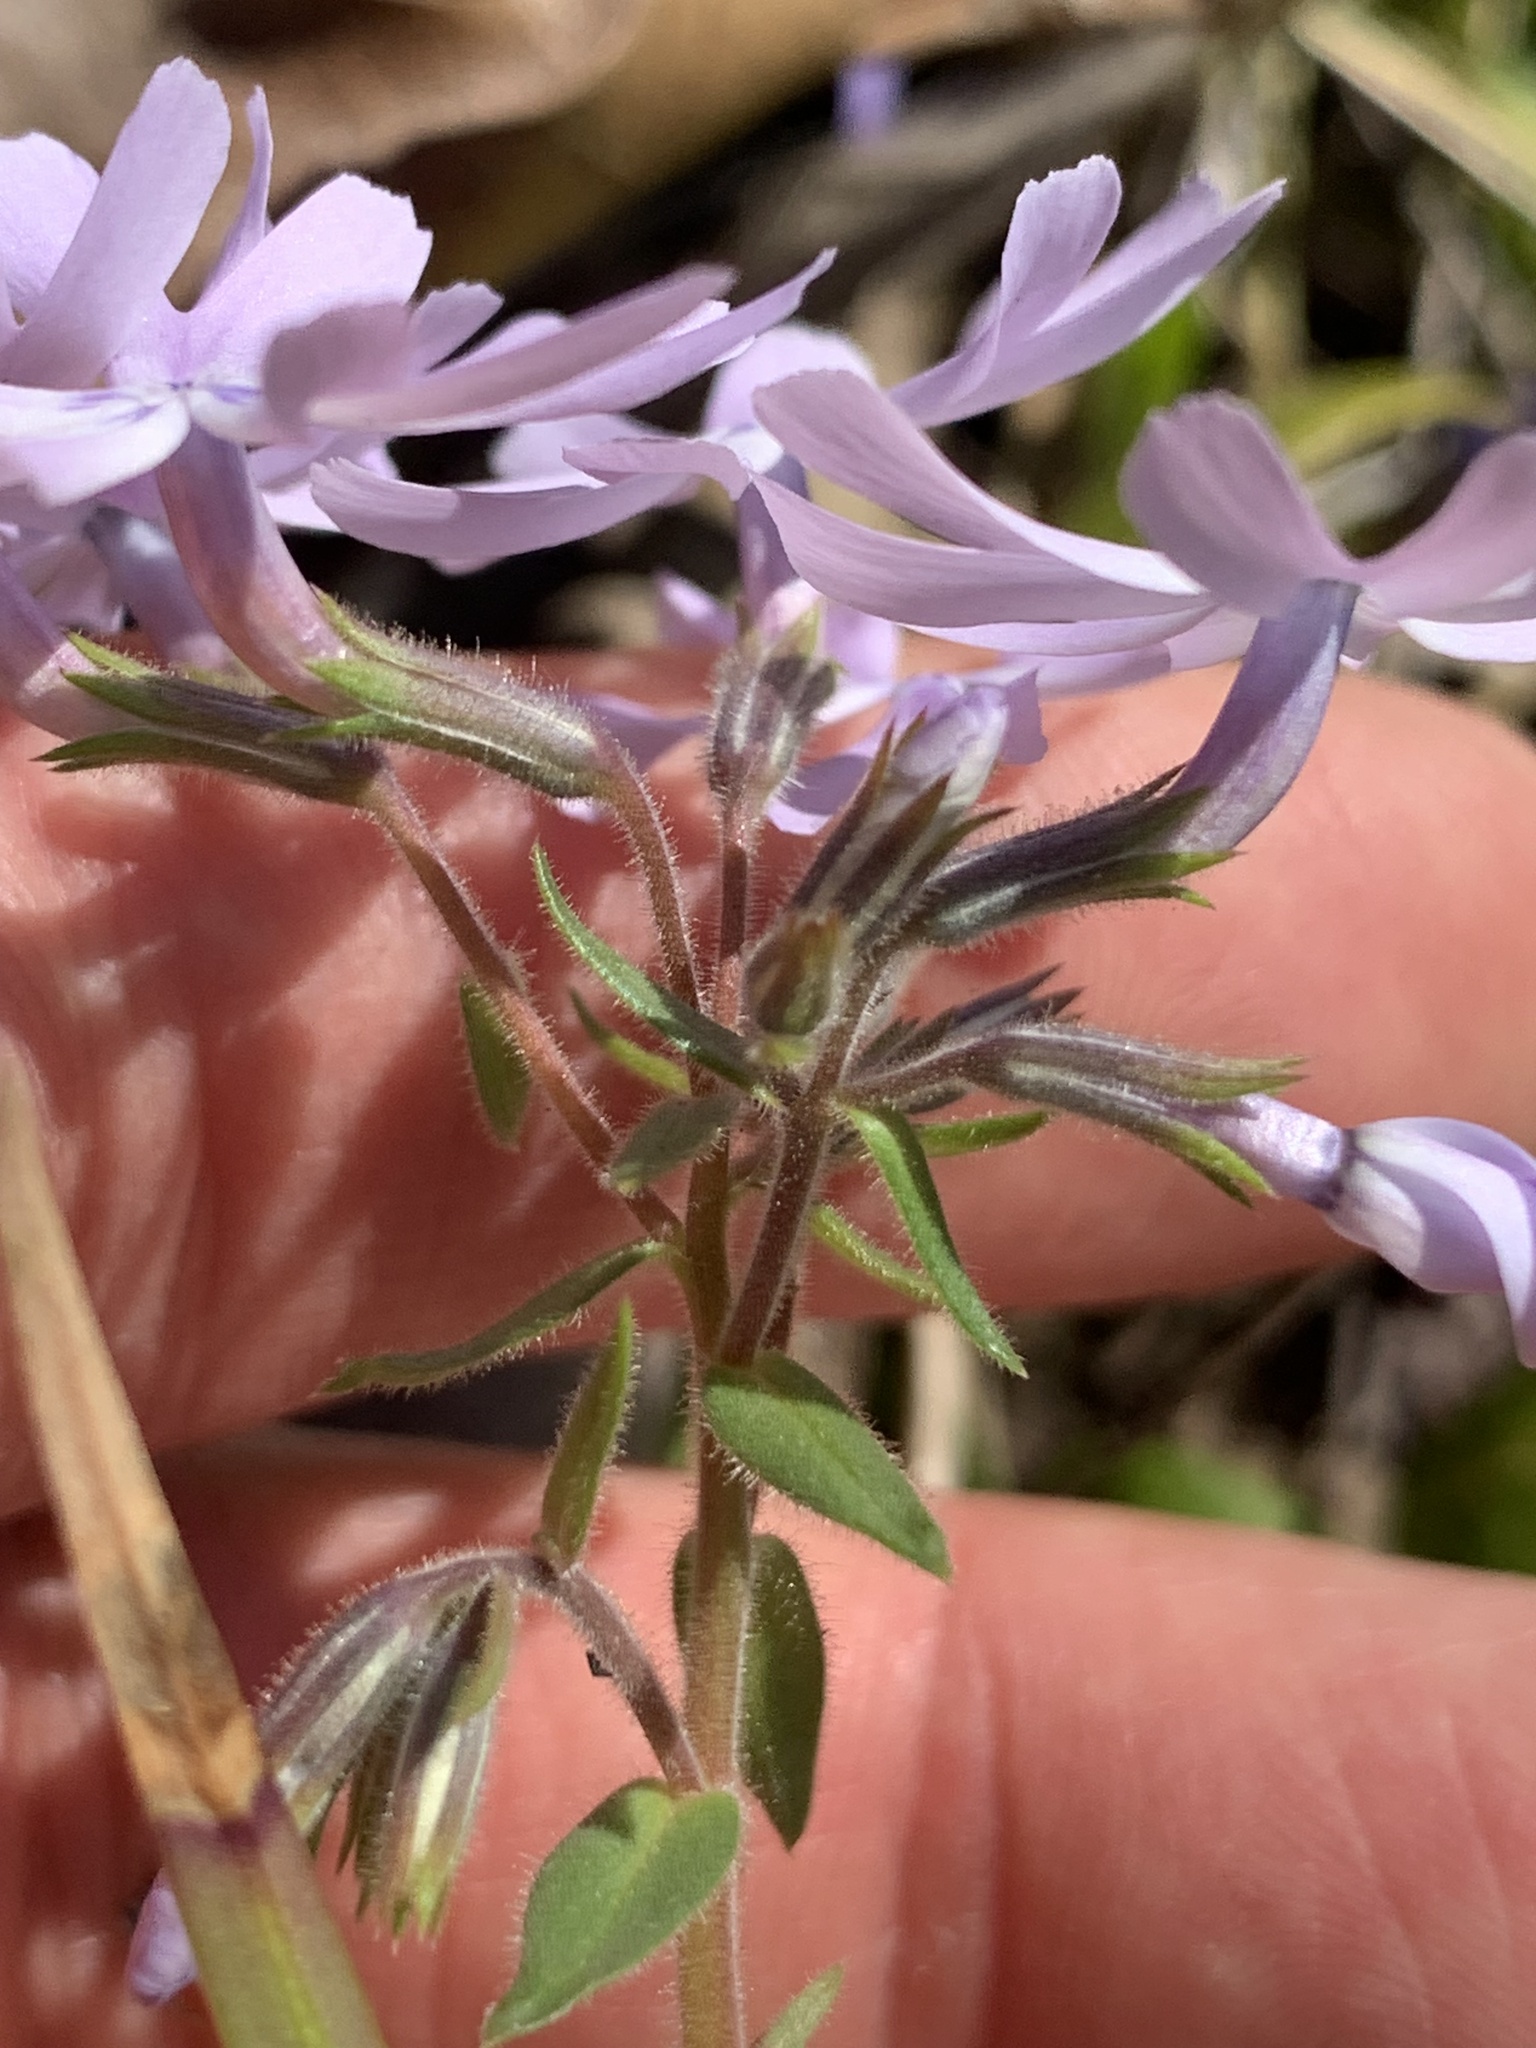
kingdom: Plantae
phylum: Tracheophyta
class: Magnoliopsida
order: Ericales
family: Polemoniaceae
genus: Phlox
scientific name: Phlox bifida
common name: Sand phlox
